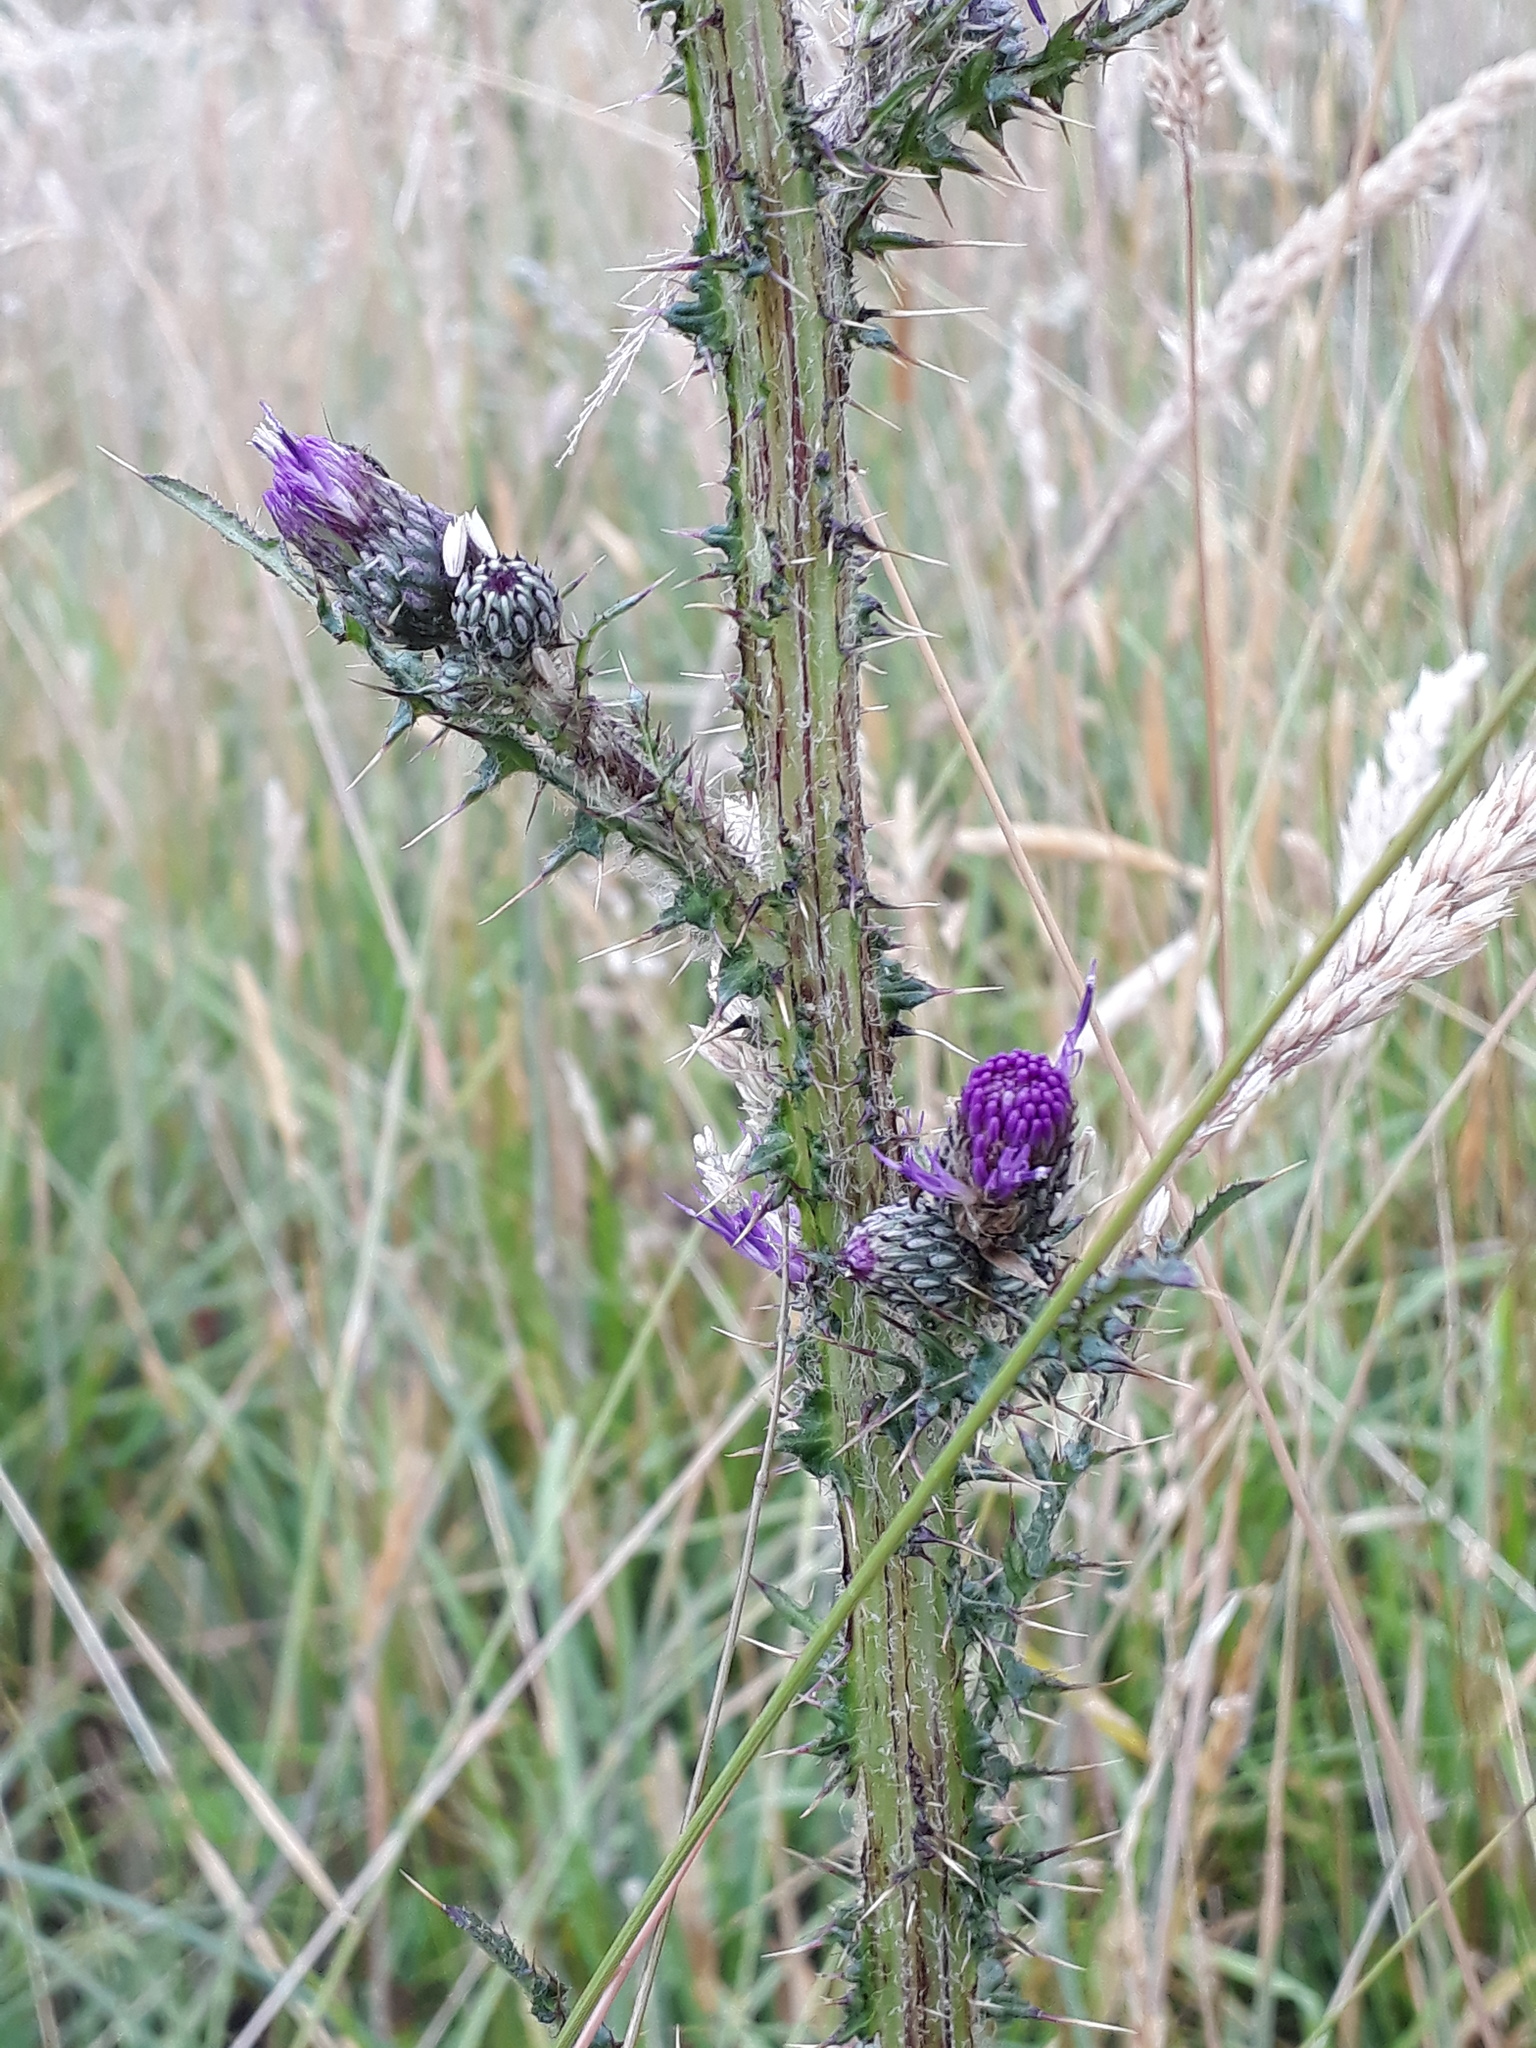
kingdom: Plantae
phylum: Tracheophyta
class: Magnoliopsida
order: Asterales
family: Asteraceae
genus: Cirsium
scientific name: Cirsium palustre
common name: Marsh thistle
